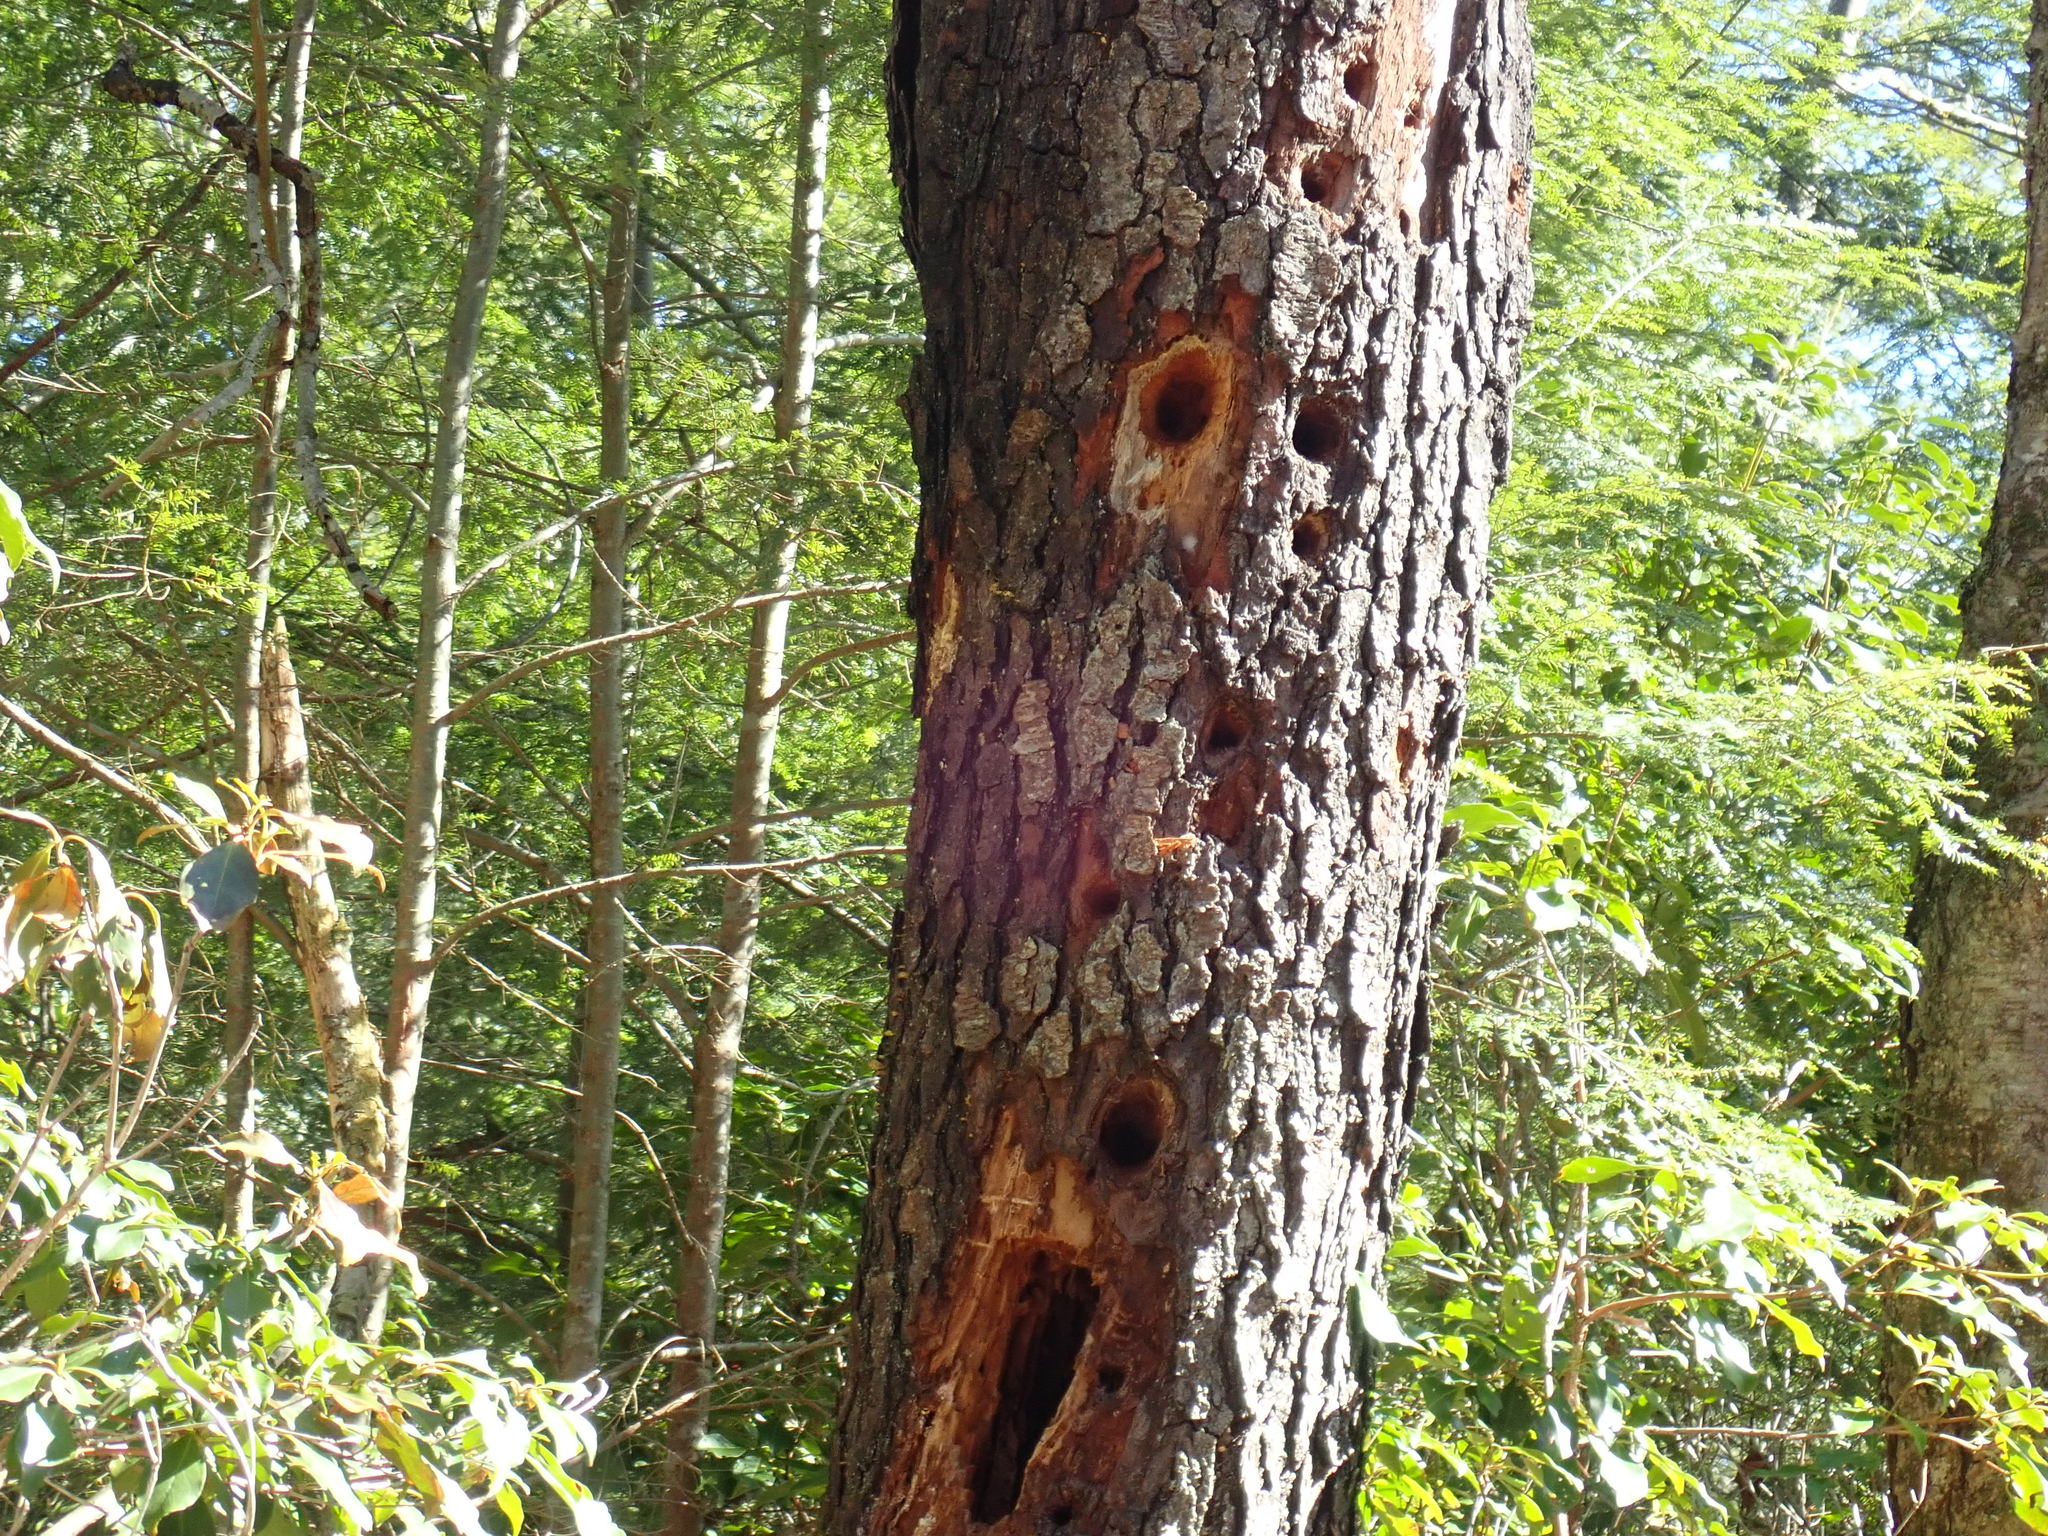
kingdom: Animalia
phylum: Chordata
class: Aves
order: Piciformes
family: Picidae
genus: Dryocopus
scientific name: Dryocopus pileatus
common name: Pileated woodpecker
